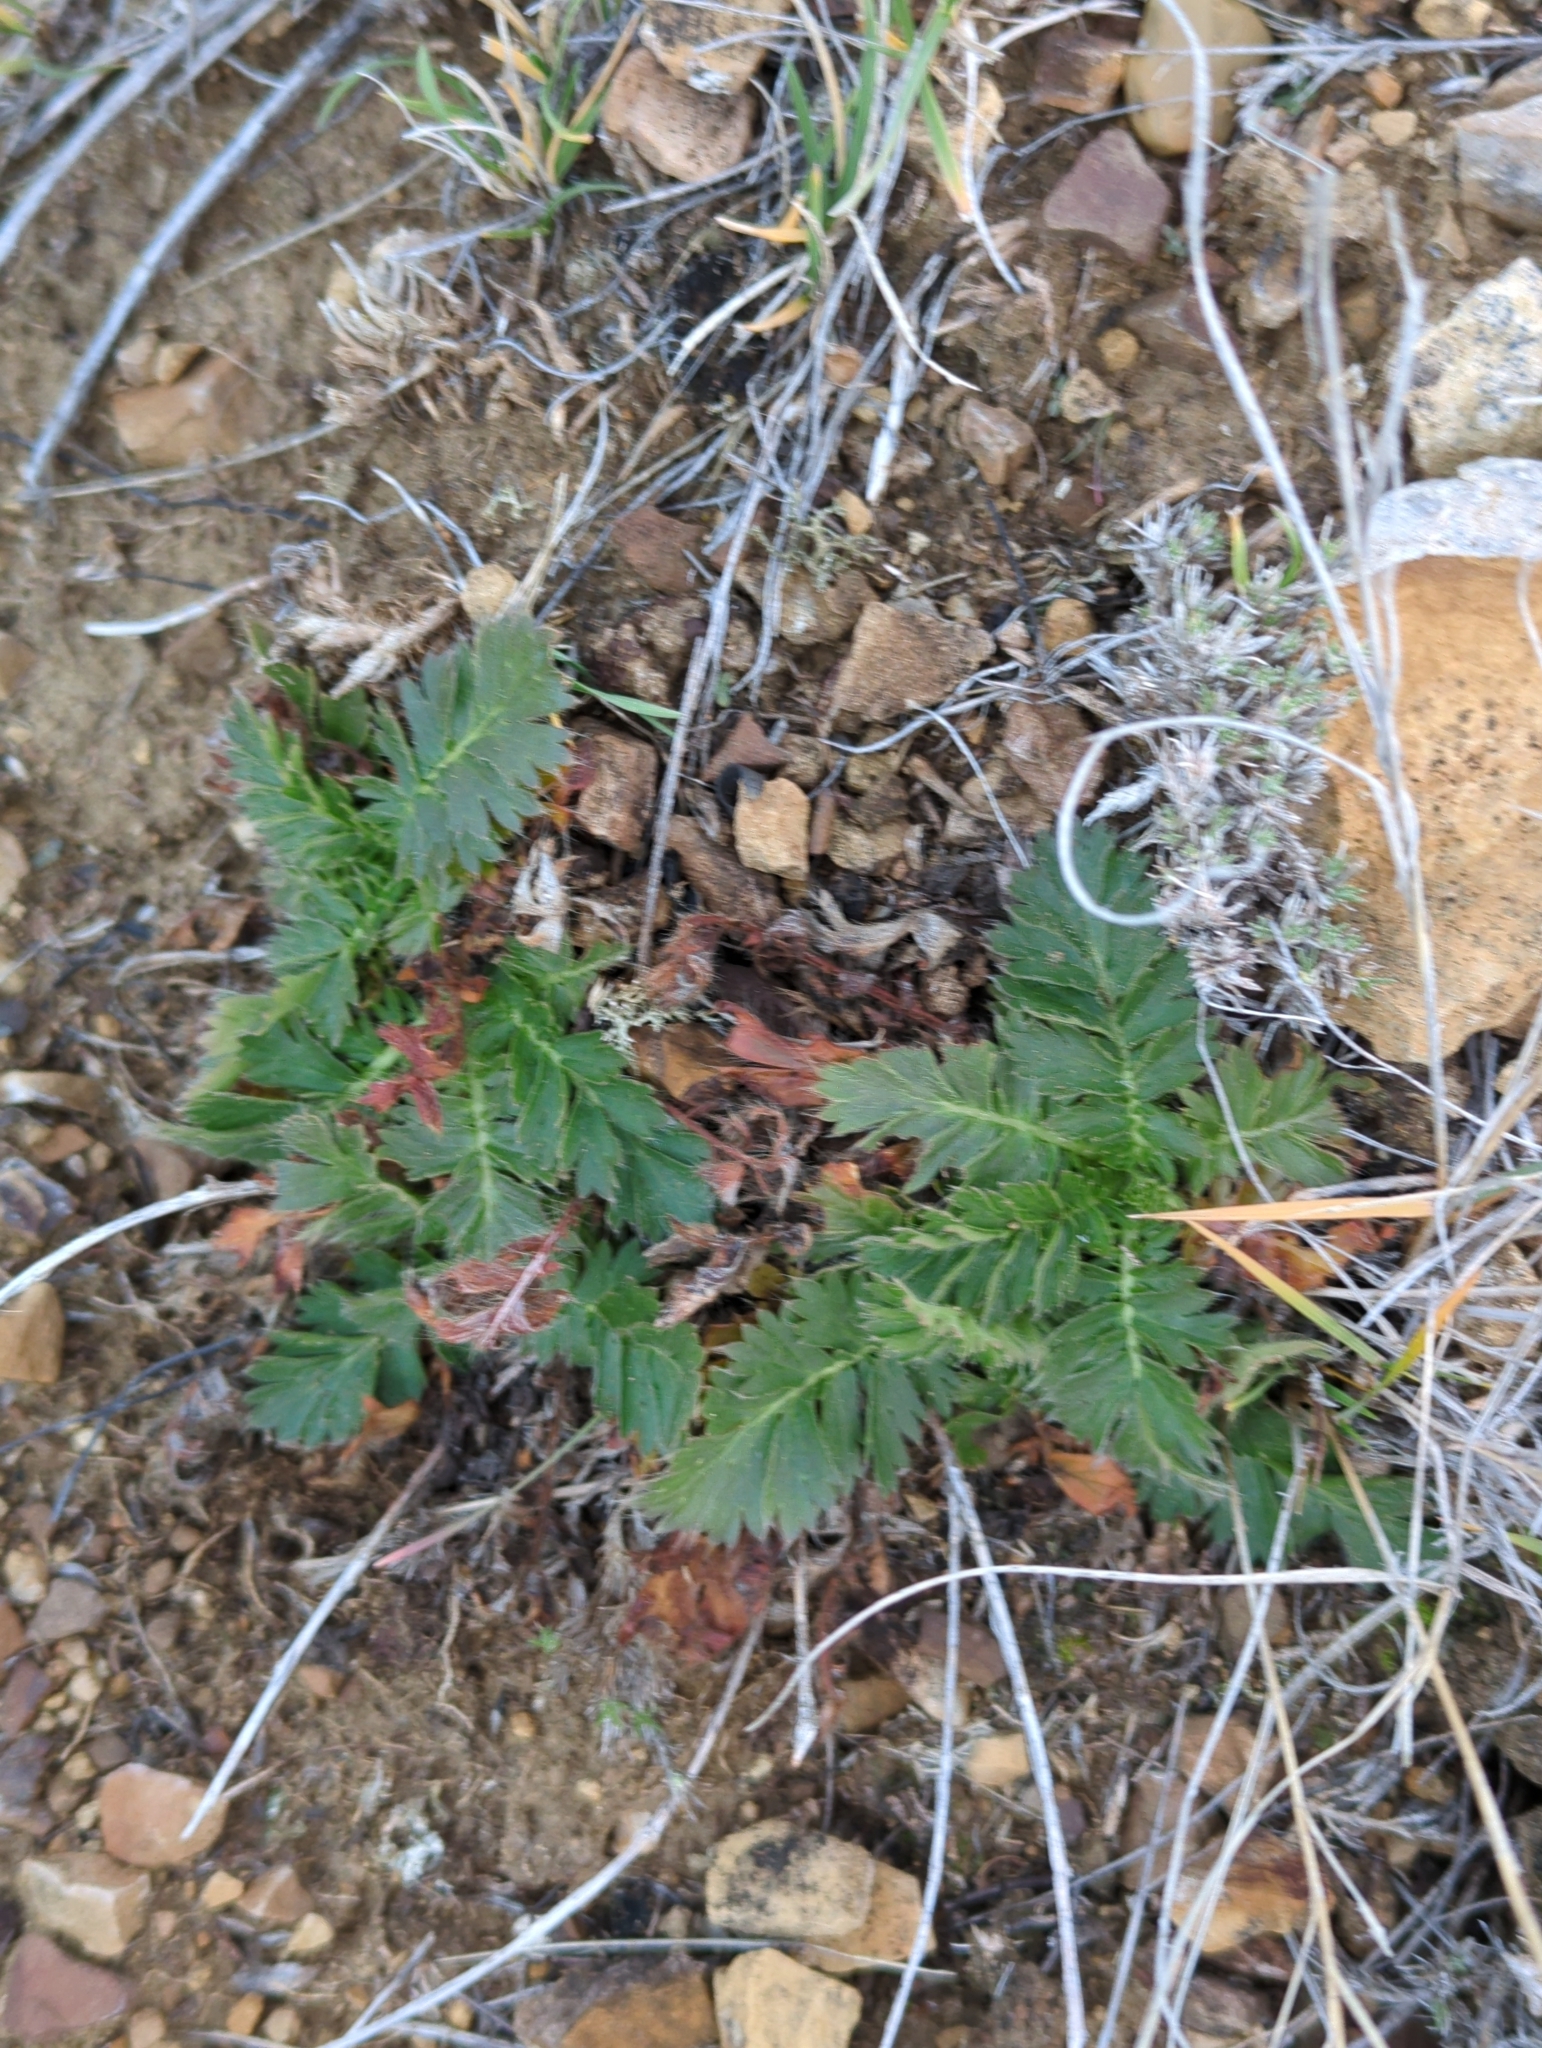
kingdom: Plantae
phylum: Tracheophyta
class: Magnoliopsida
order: Rosales
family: Rosaceae
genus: Geum
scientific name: Geum triflorum
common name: Old man's whiskers
